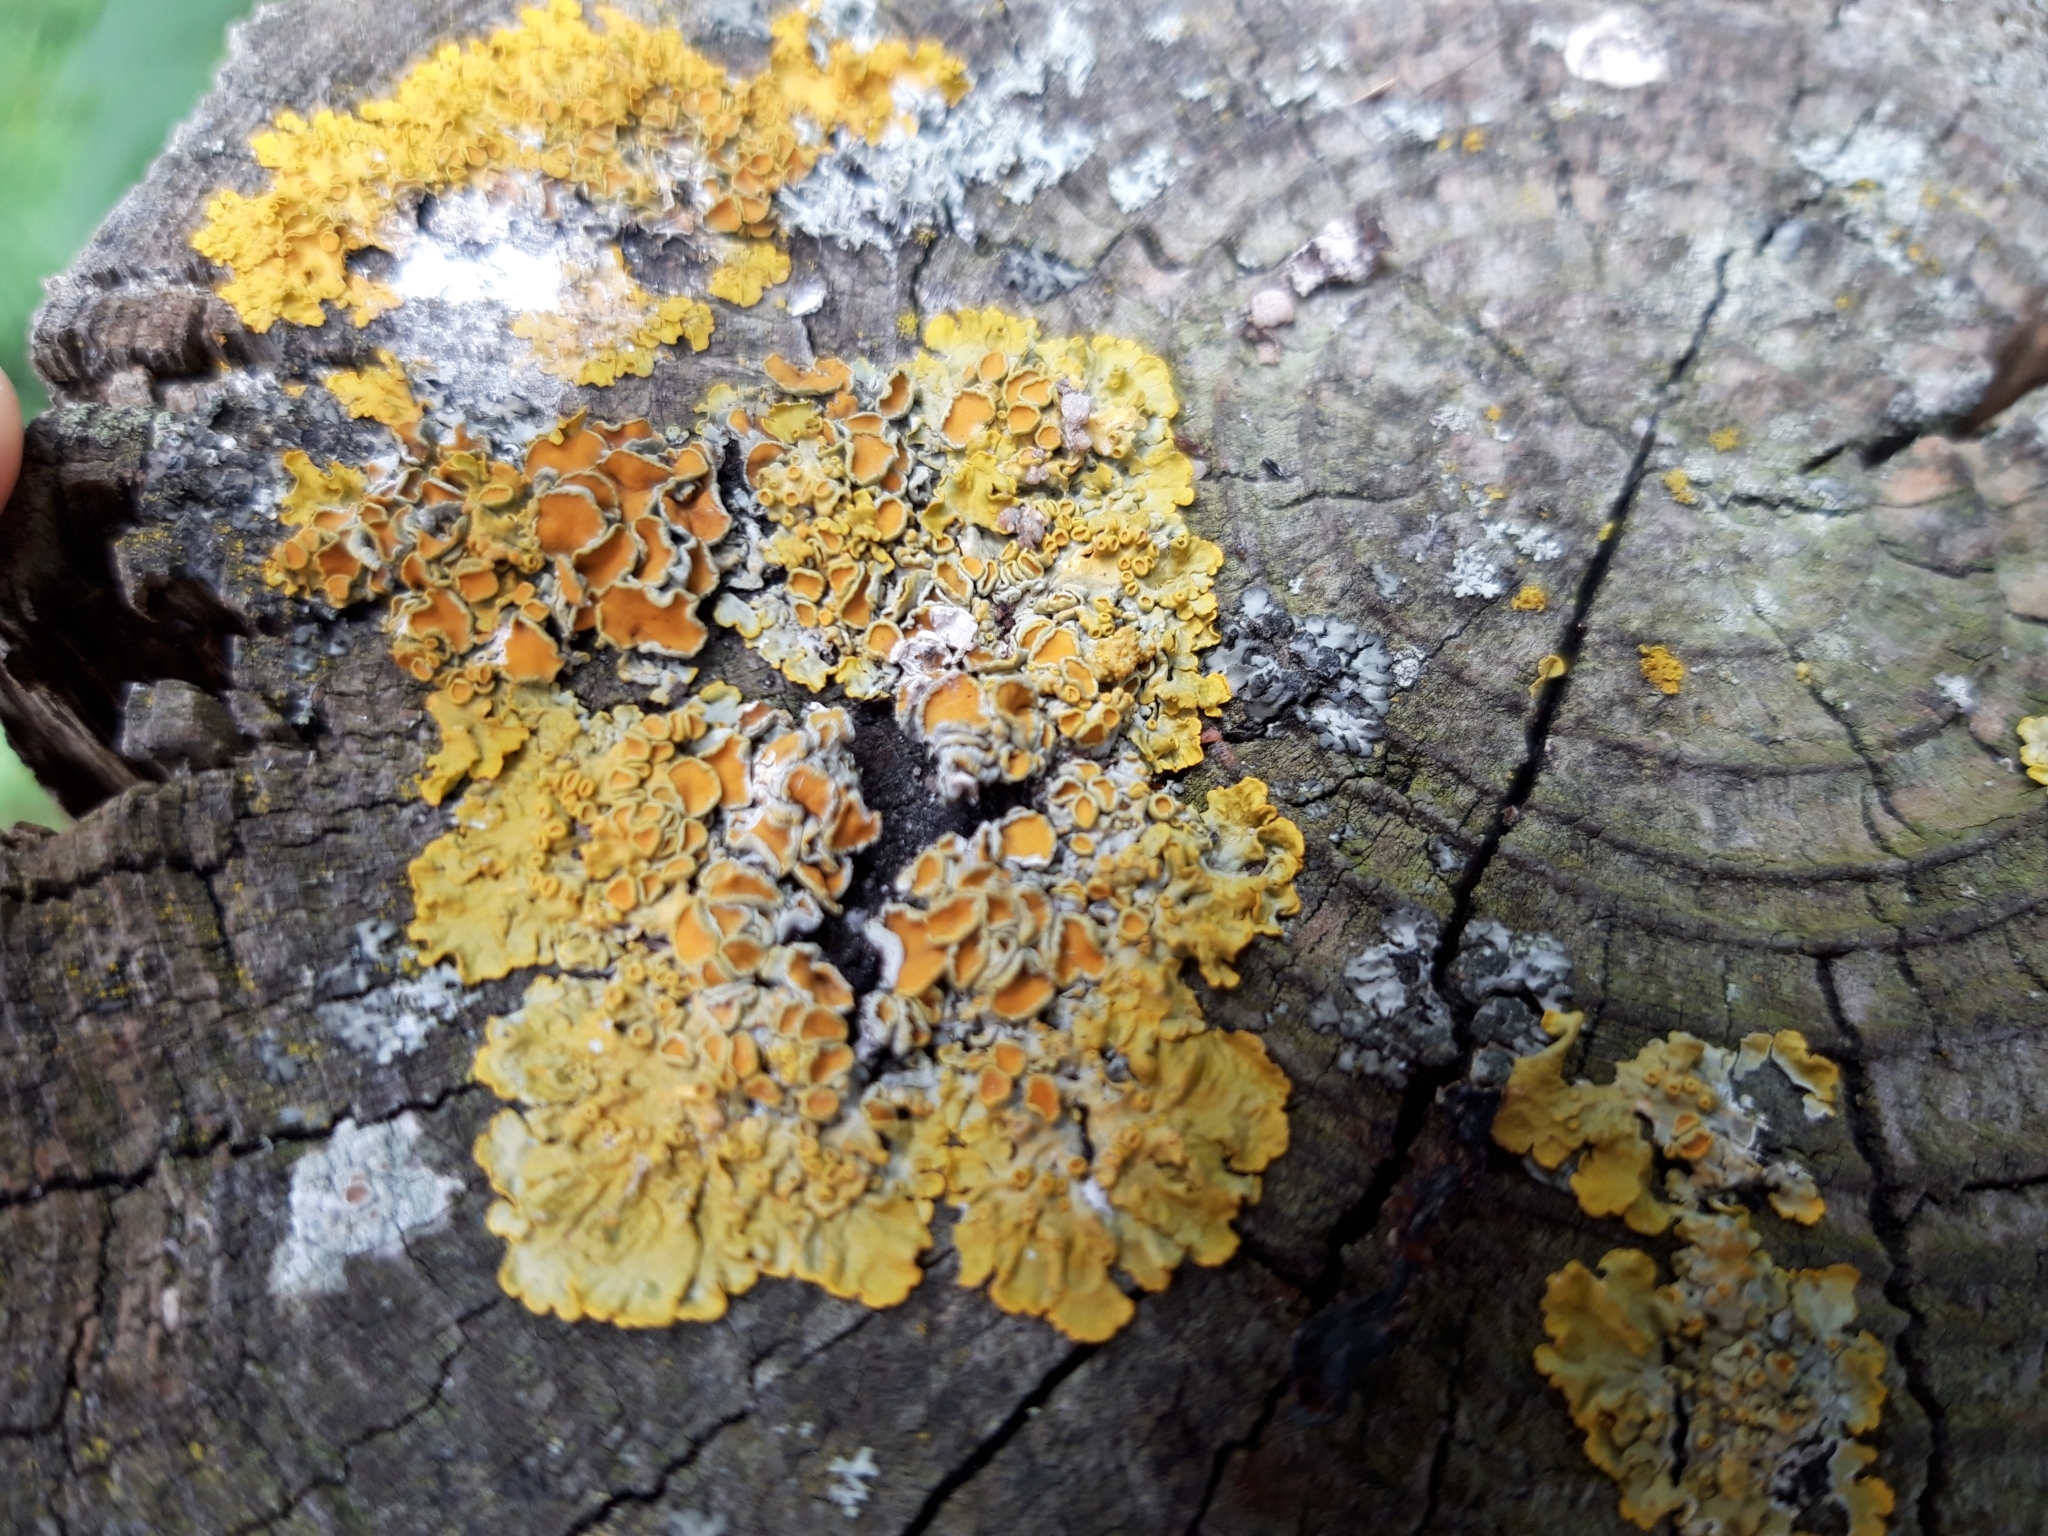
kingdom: Fungi
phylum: Ascomycota
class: Lecanoromycetes
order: Teloschistales
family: Teloschistaceae
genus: Xanthoria
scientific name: Xanthoria parietina
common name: Common orange lichen
